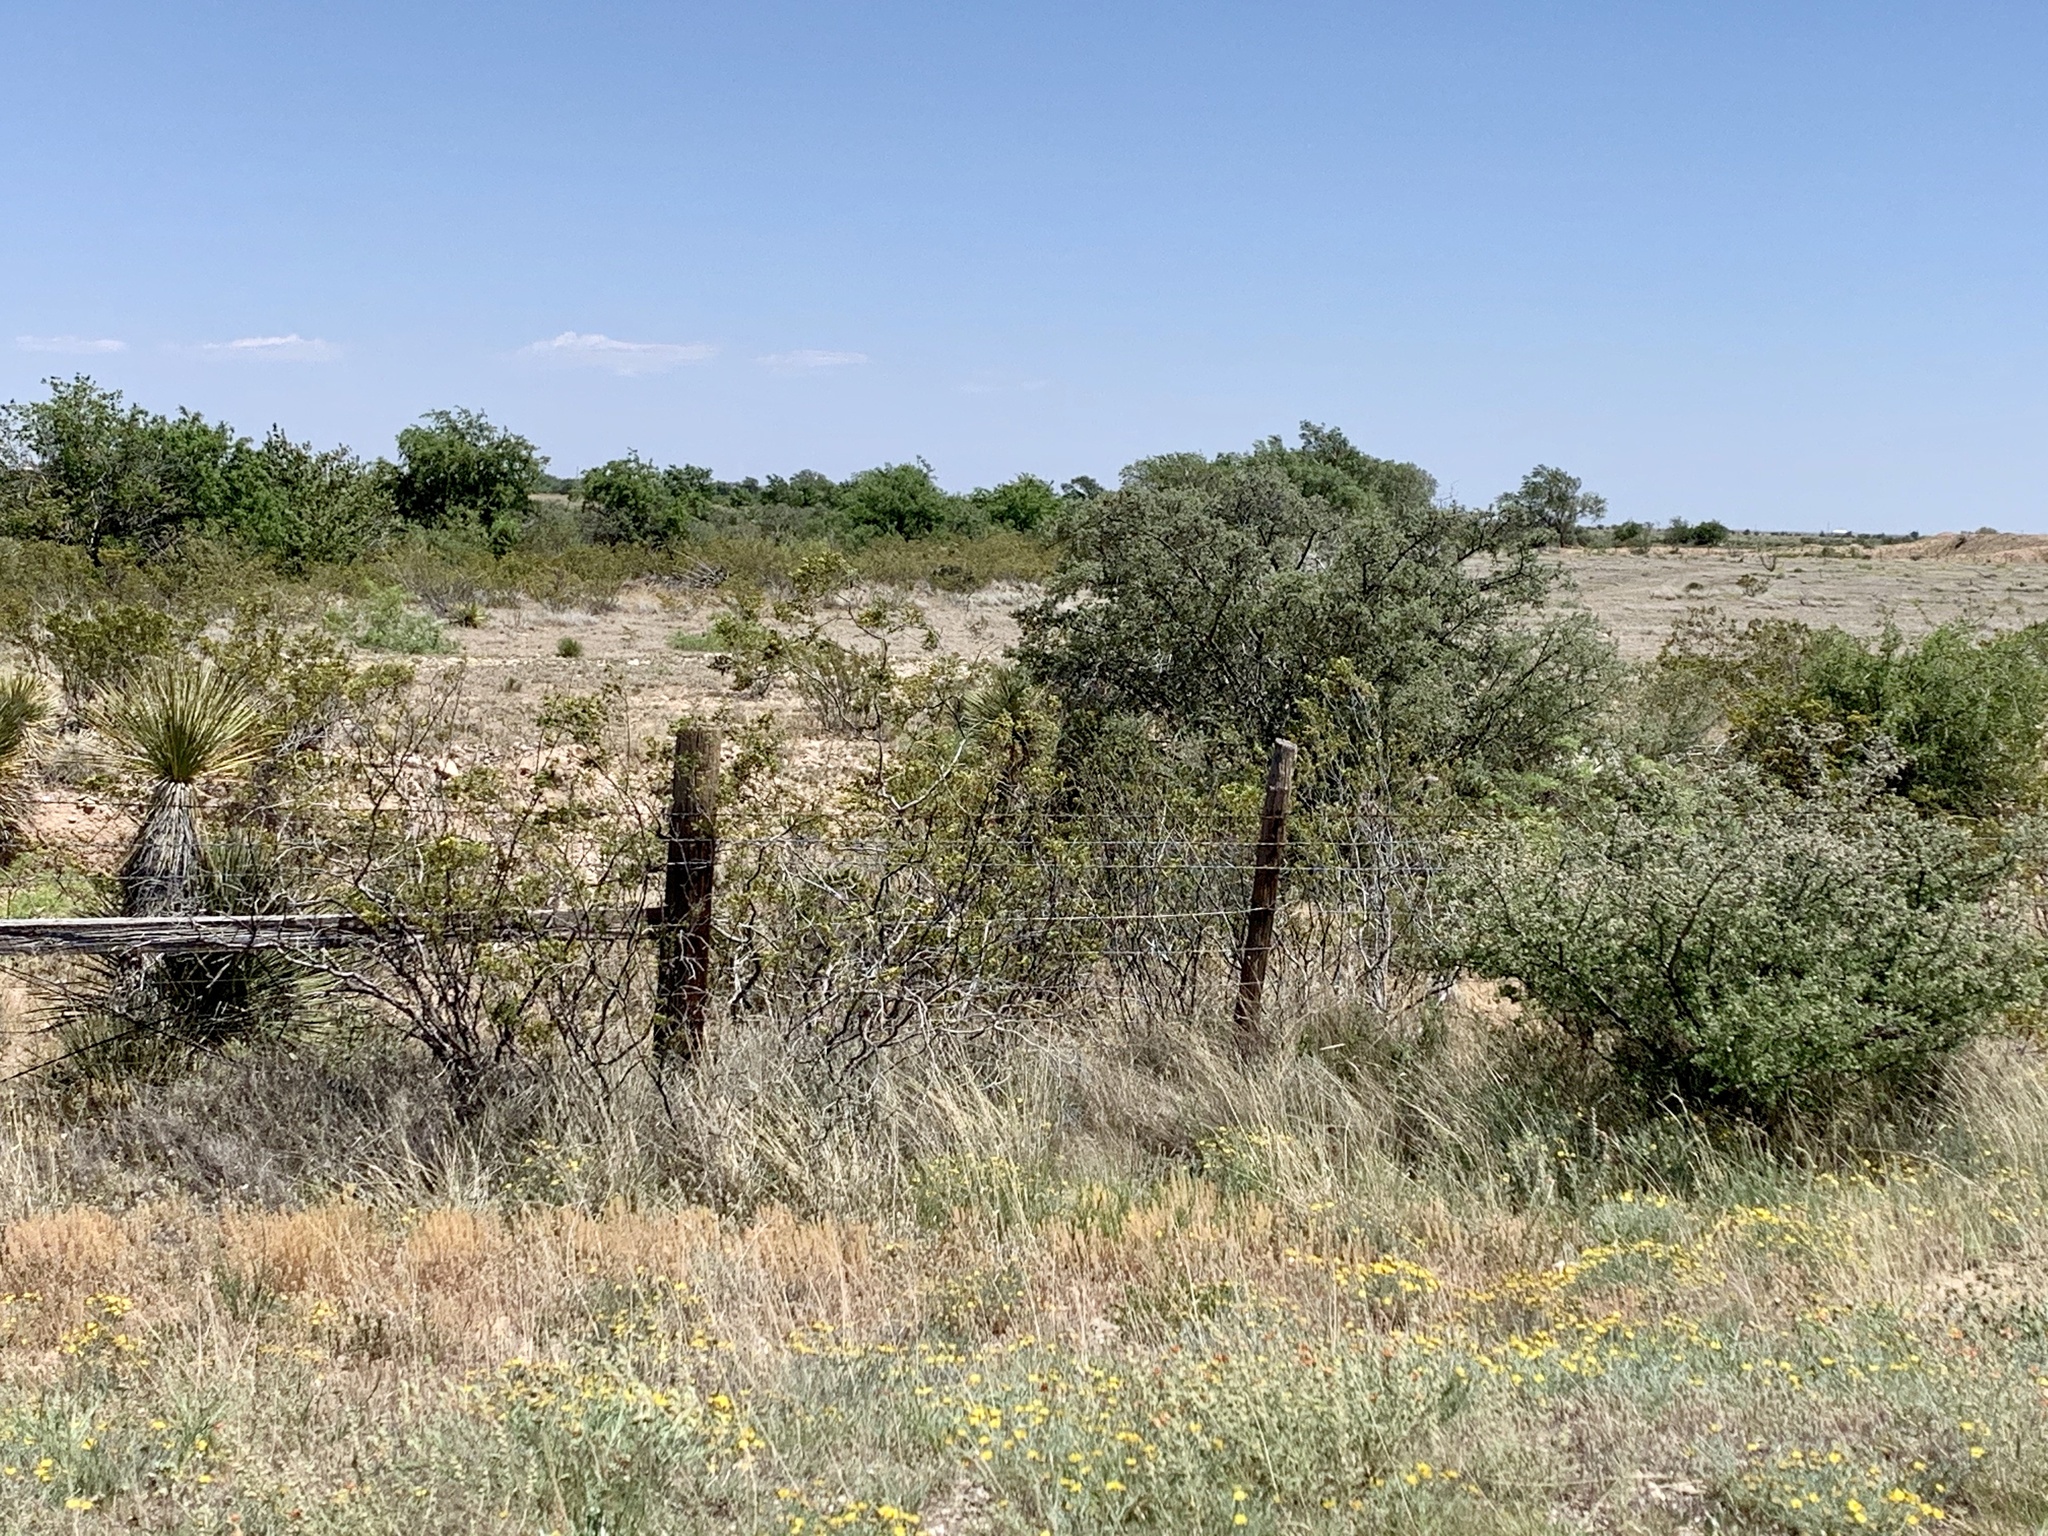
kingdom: Plantae
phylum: Tracheophyta
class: Magnoliopsida
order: Zygophyllales
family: Zygophyllaceae
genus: Larrea
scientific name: Larrea tridentata
